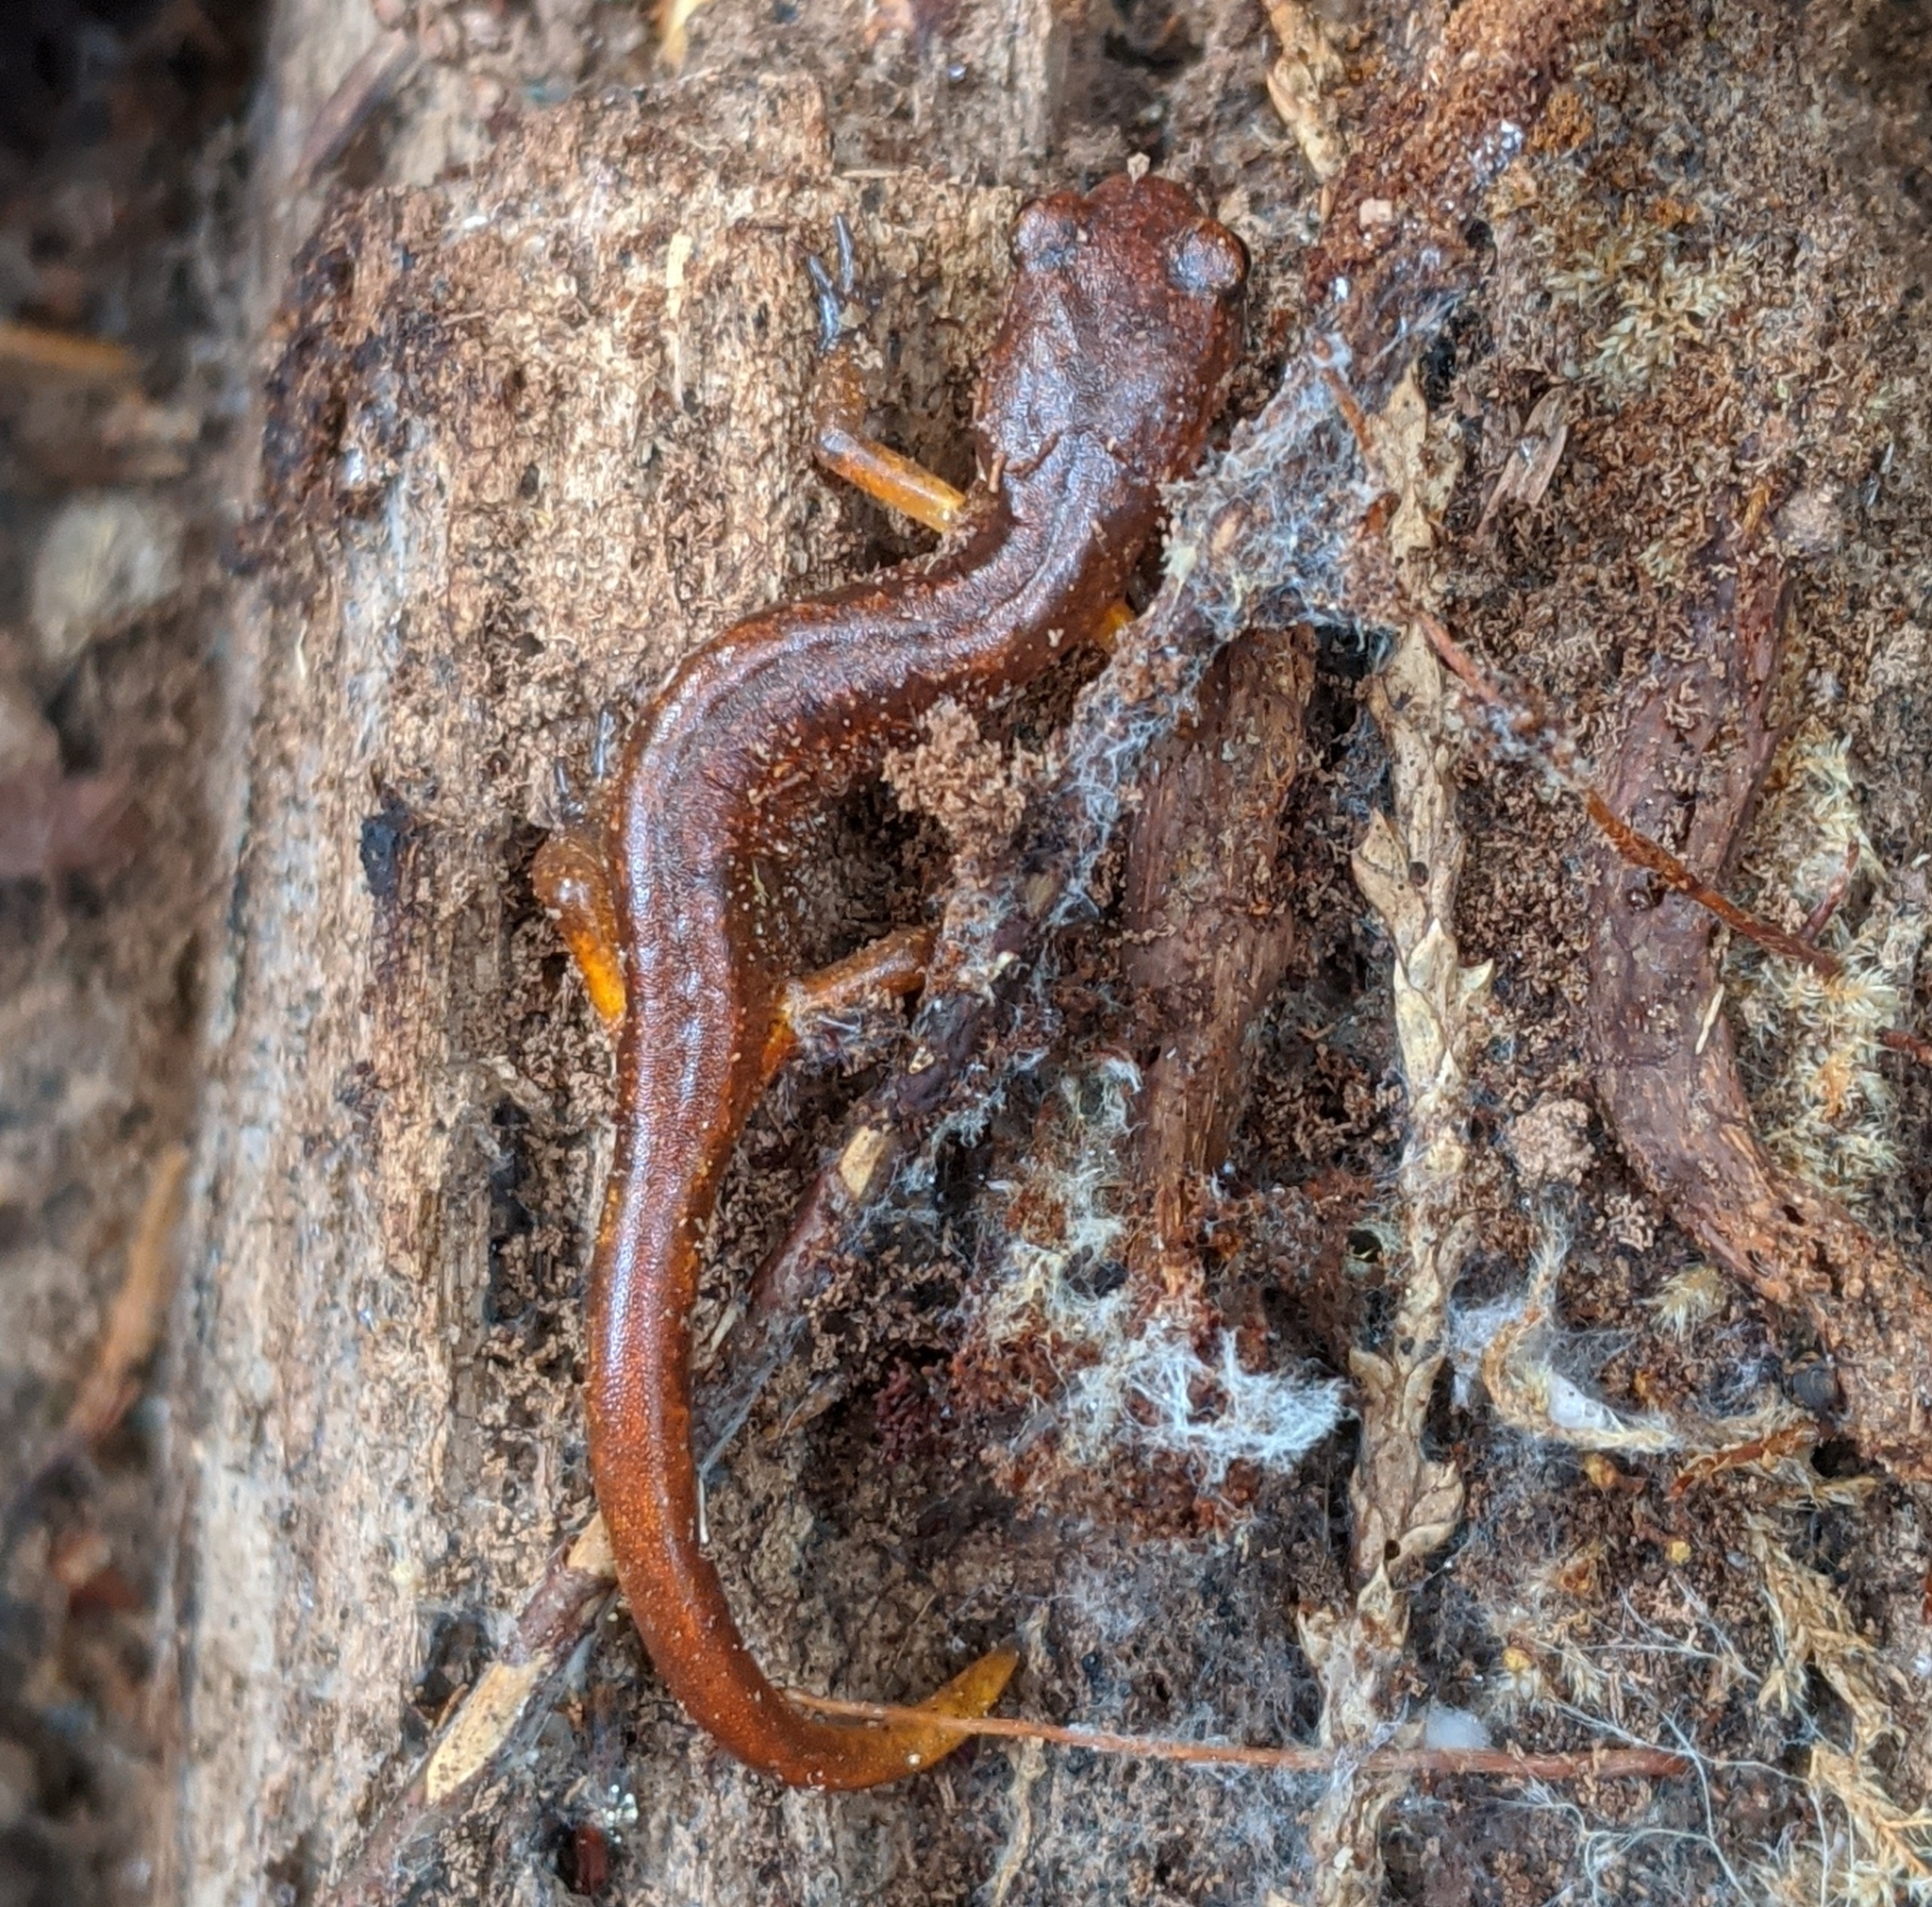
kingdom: Animalia
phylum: Chordata
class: Amphibia
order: Caudata
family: Plethodontidae
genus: Ensatina
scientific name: Ensatina eschscholtzii
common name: Ensatina
